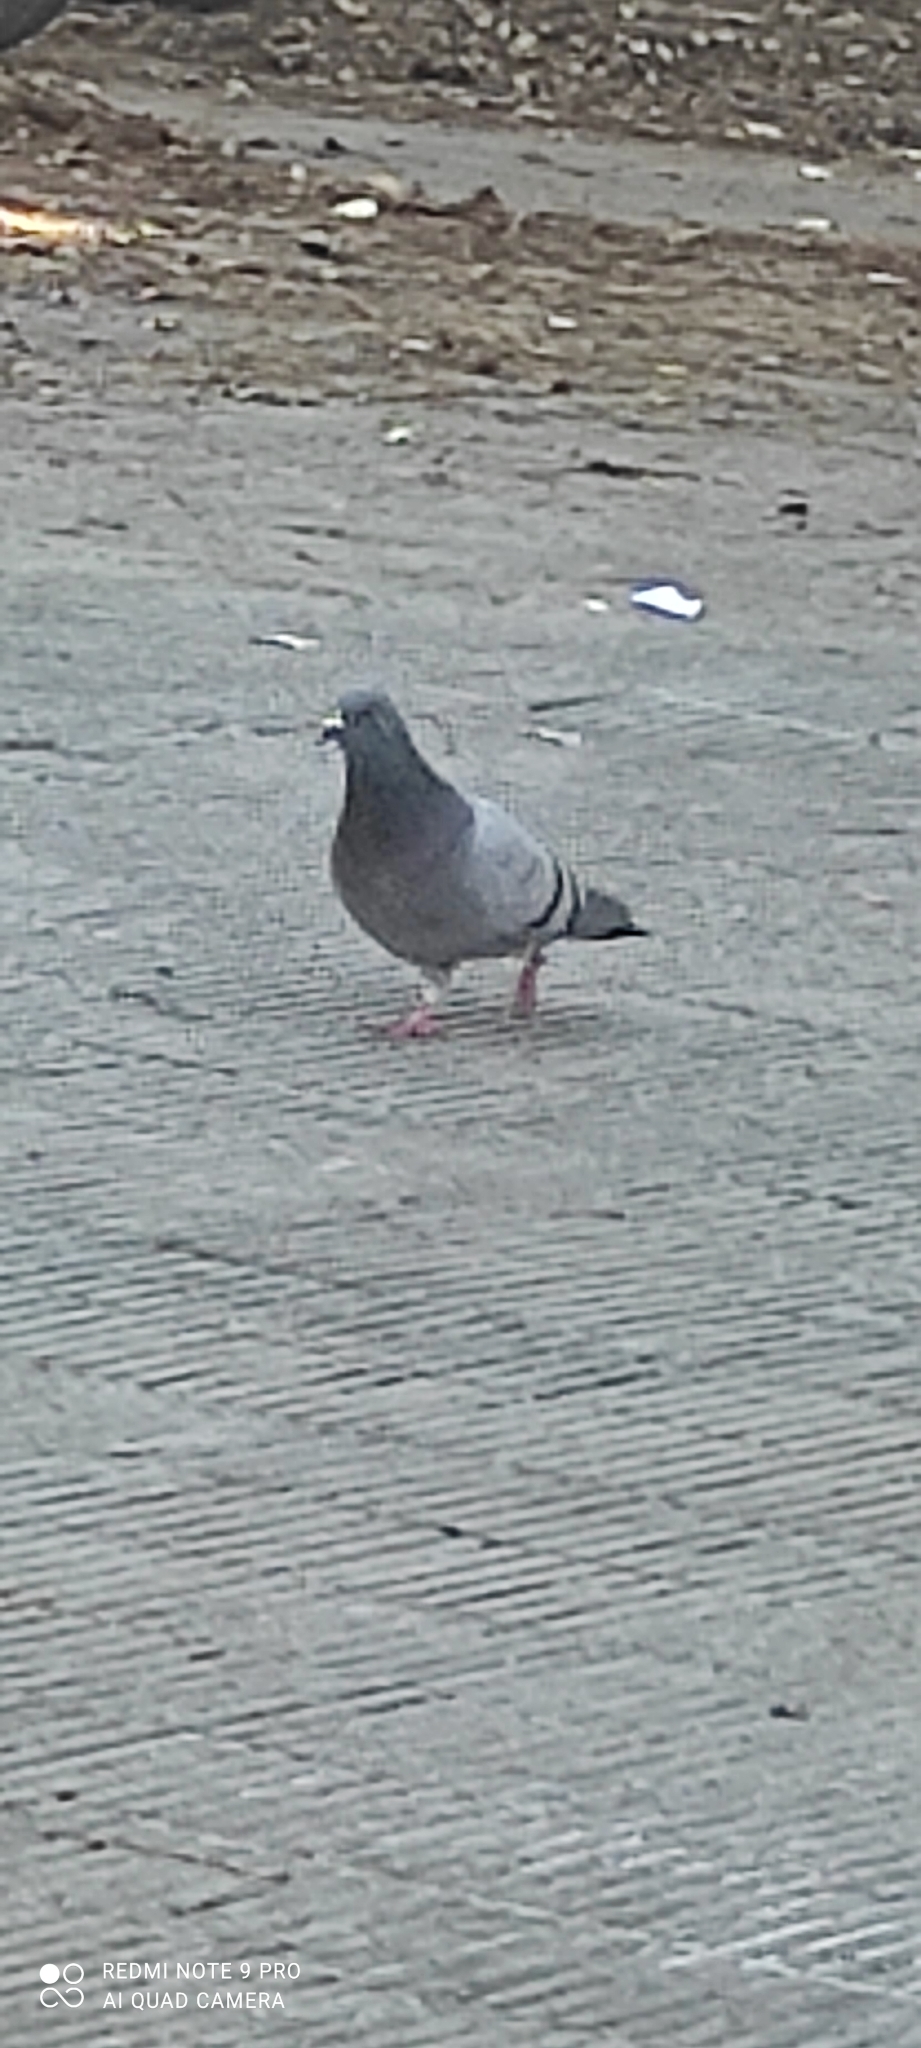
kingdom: Animalia
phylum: Chordata
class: Aves
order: Columbiformes
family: Columbidae
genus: Columba
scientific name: Columba livia
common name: Rock pigeon
